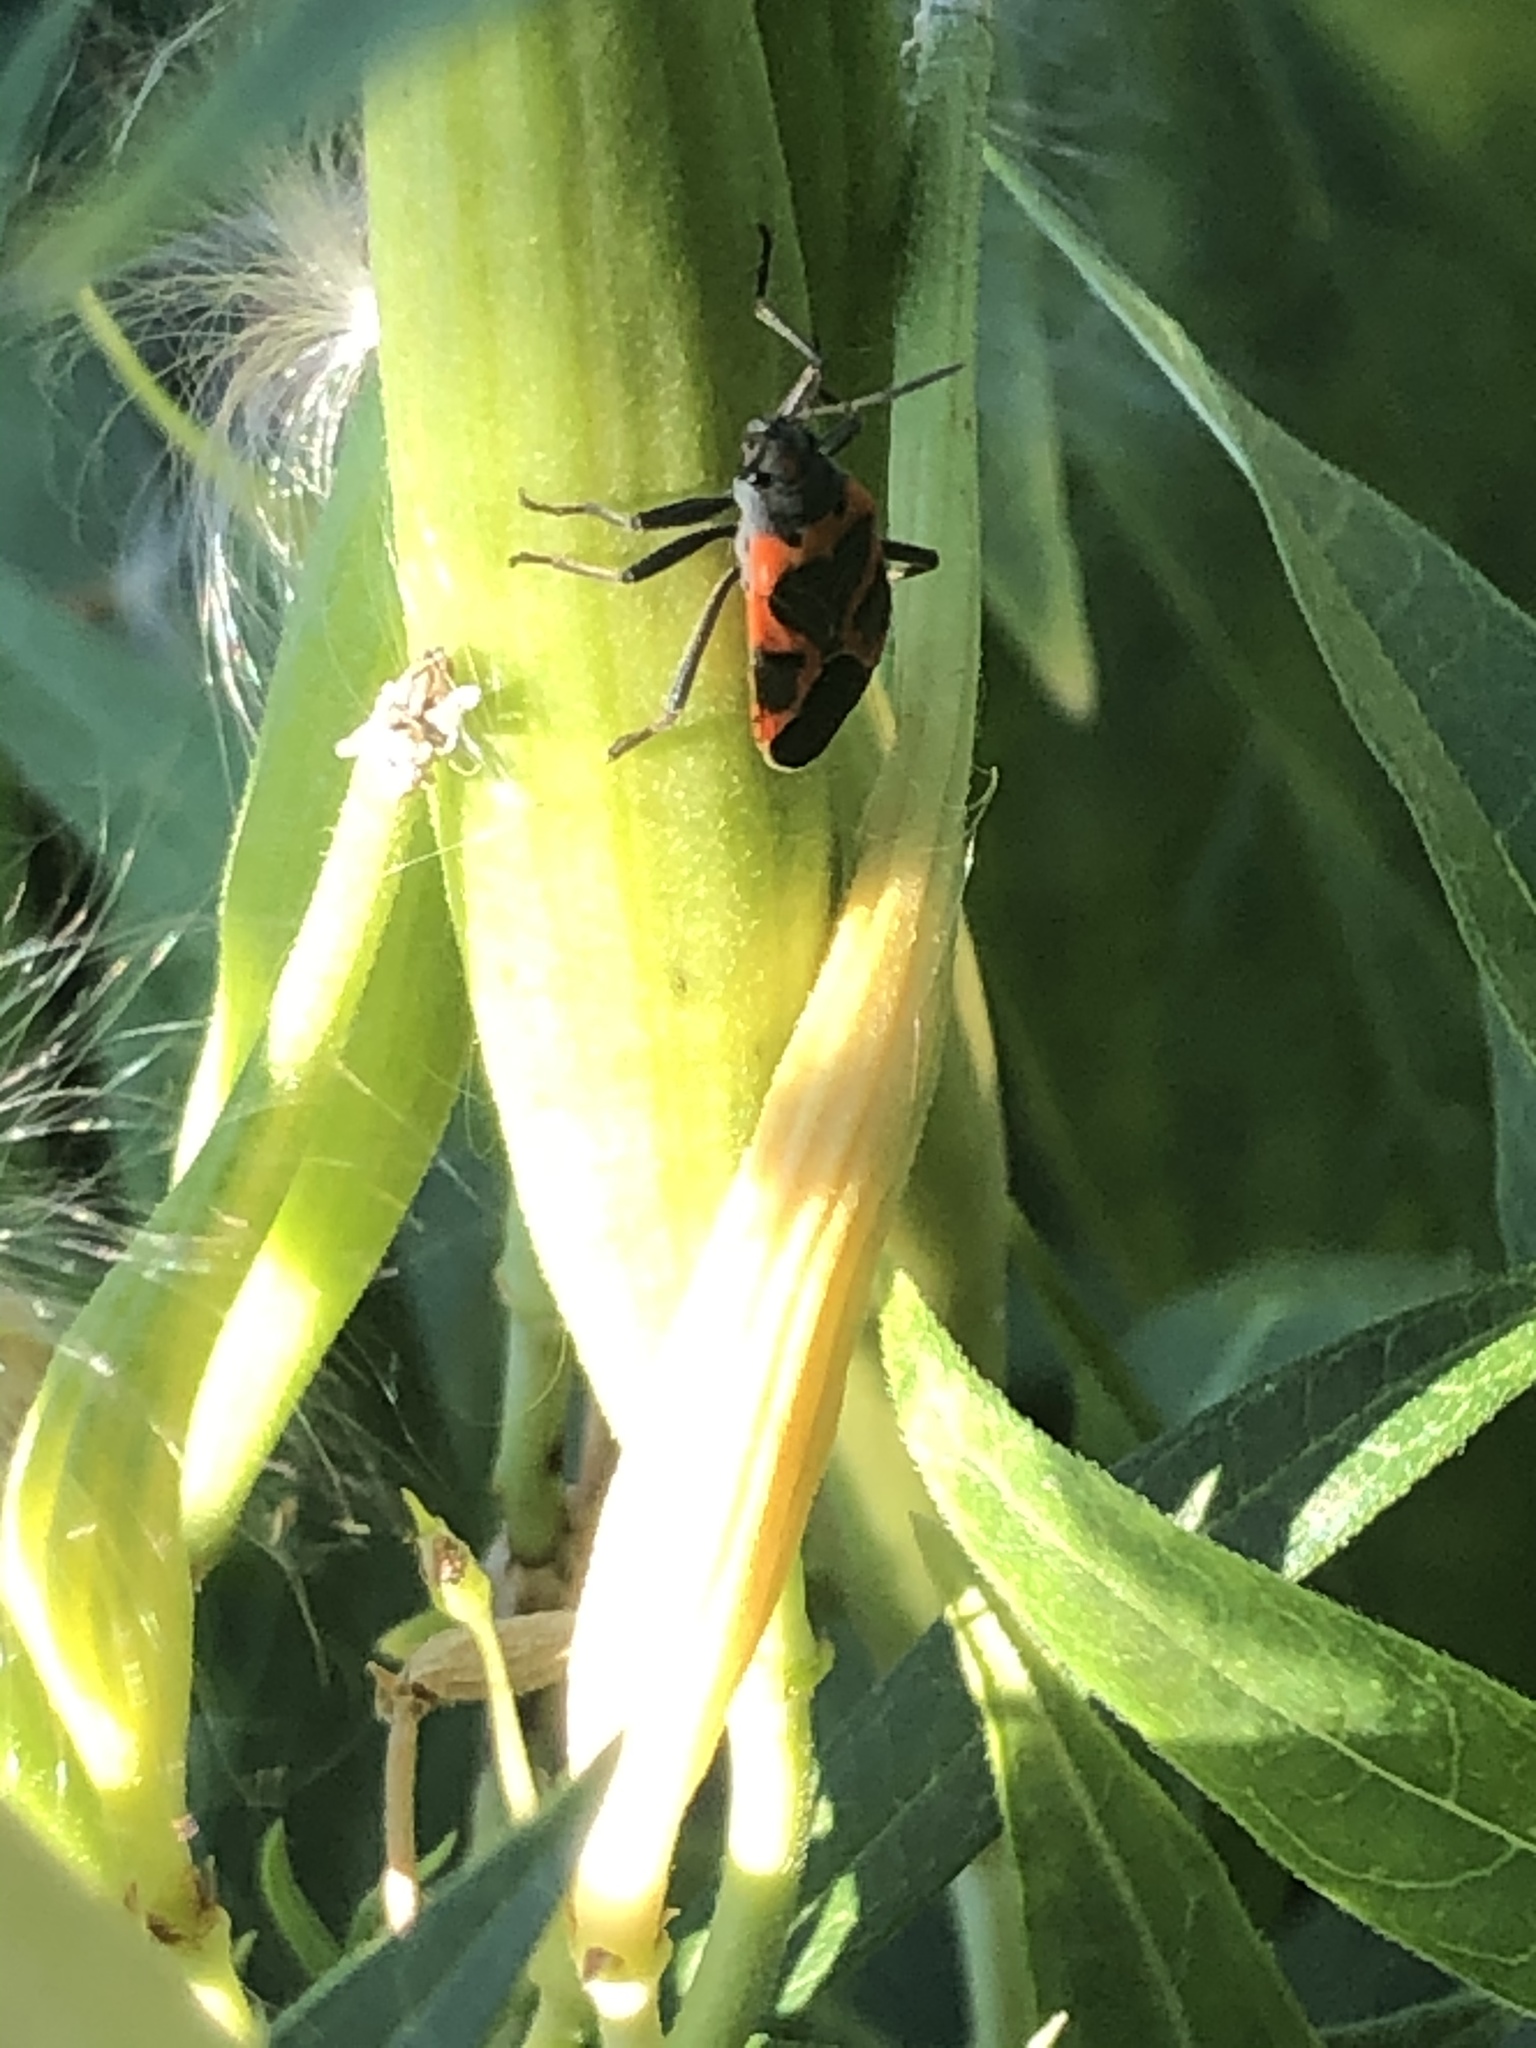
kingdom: Animalia
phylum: Arthropoda
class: Insecta
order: Hemiptera
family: Lygaeidae
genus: Lygaeus
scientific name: Lygaeus kalmii
